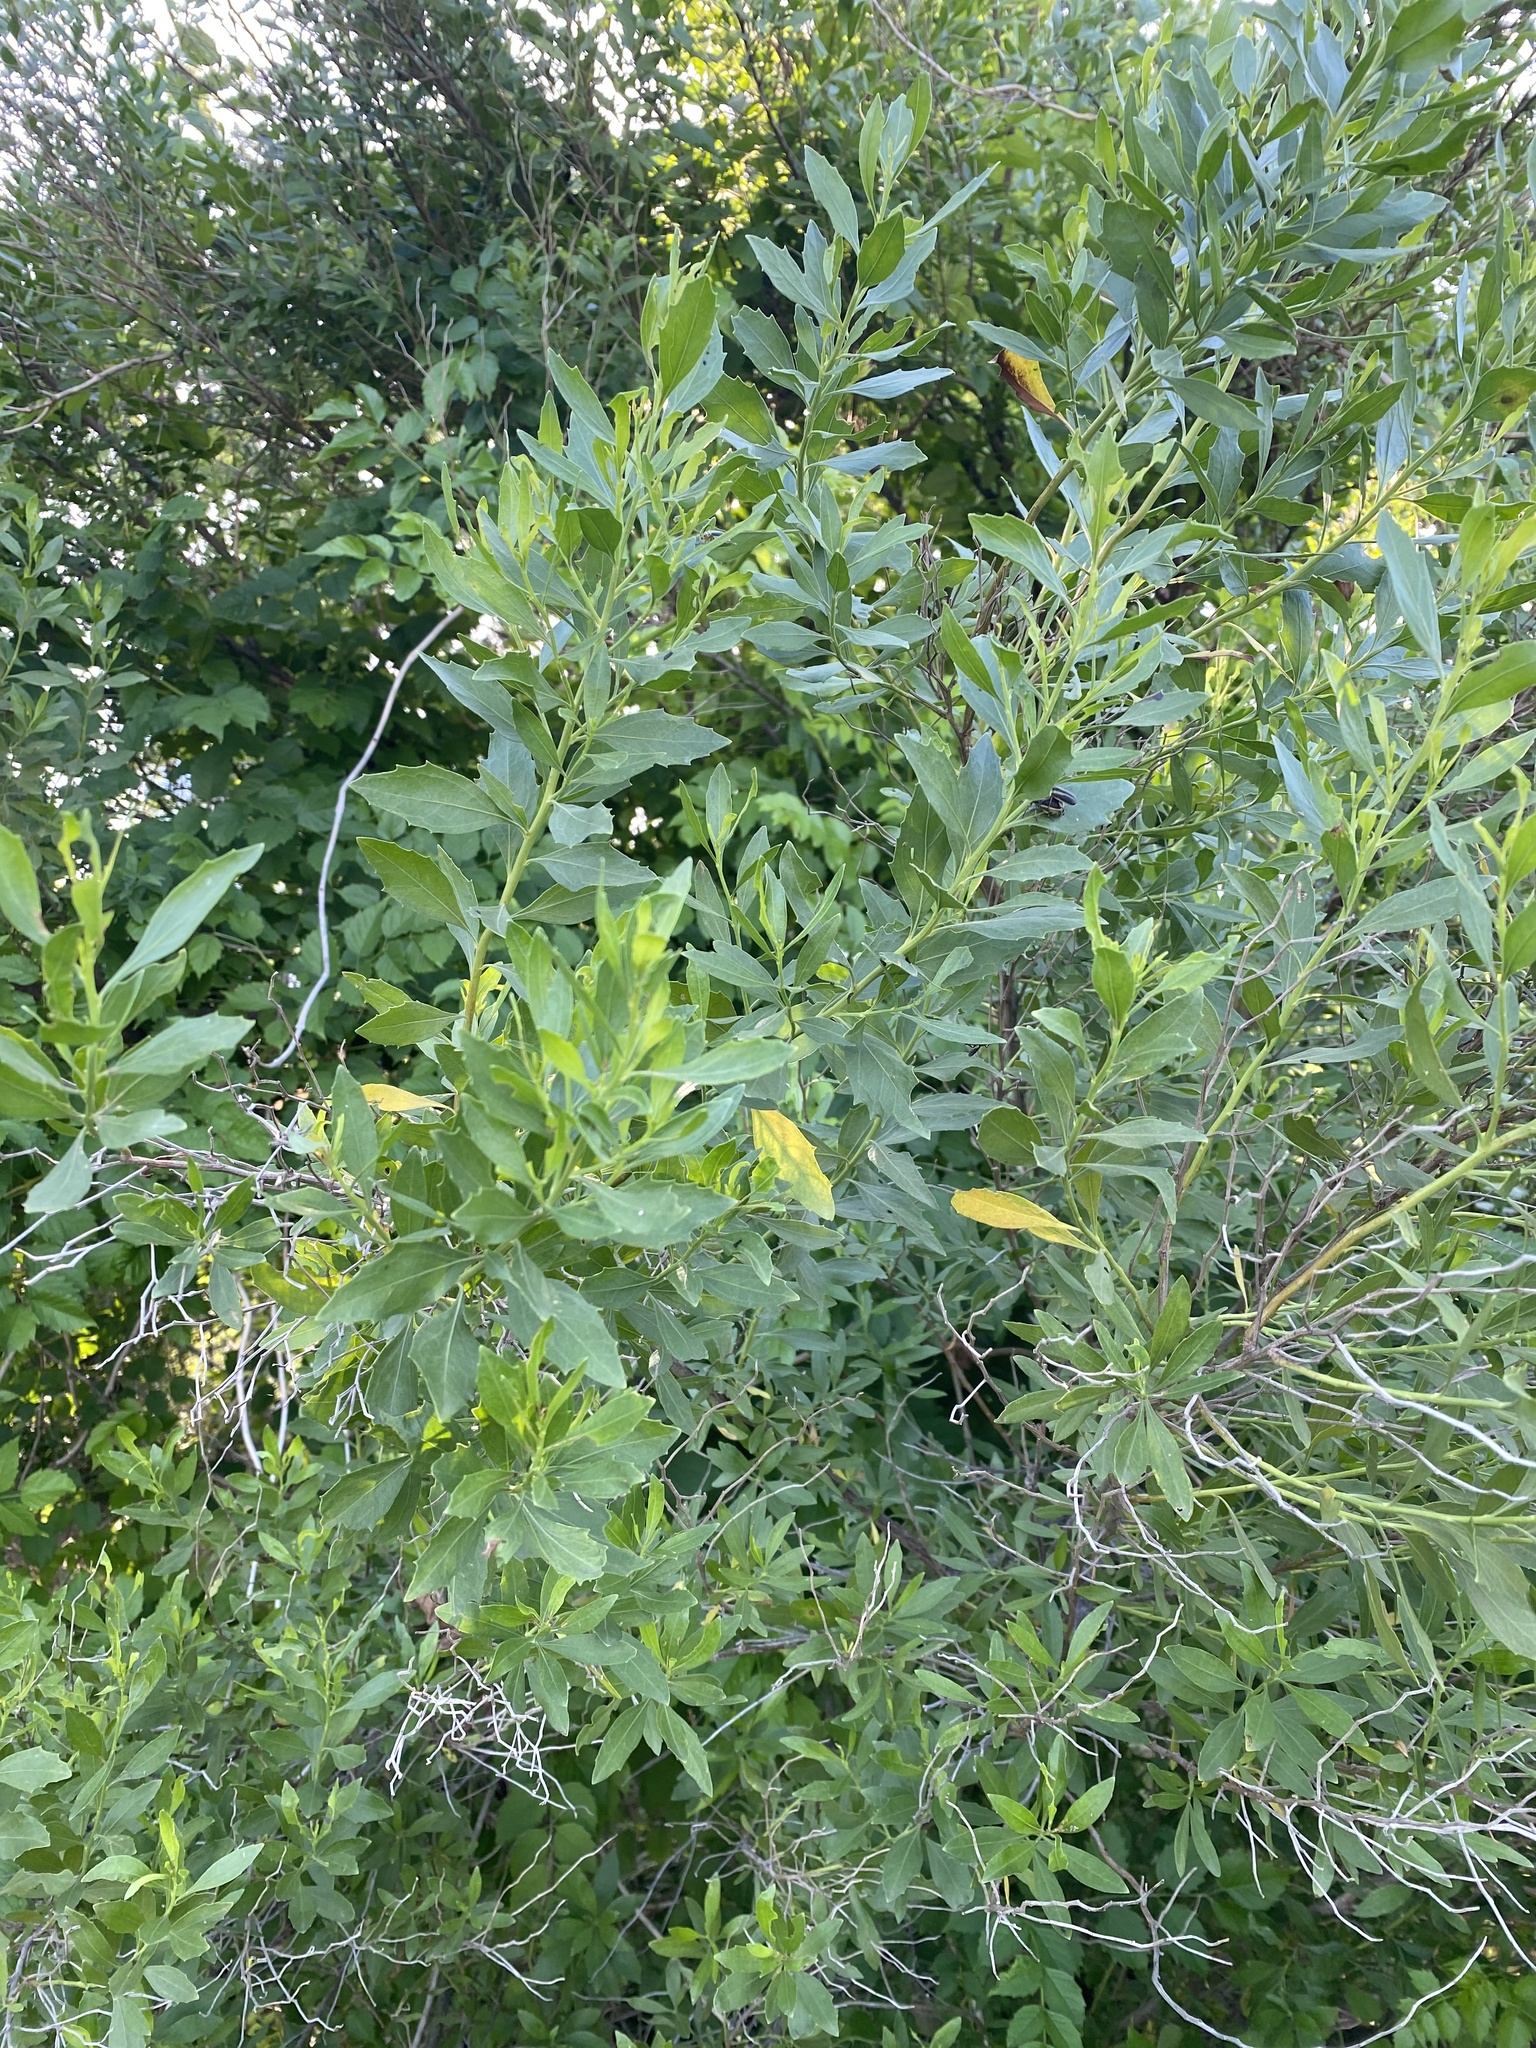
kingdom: Plantae
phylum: Tracheophyta
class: Magnoliopsida
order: Asterales
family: Asteraceae
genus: Baccharis
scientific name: Baccharis halimifolia
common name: Eastern baccharis
